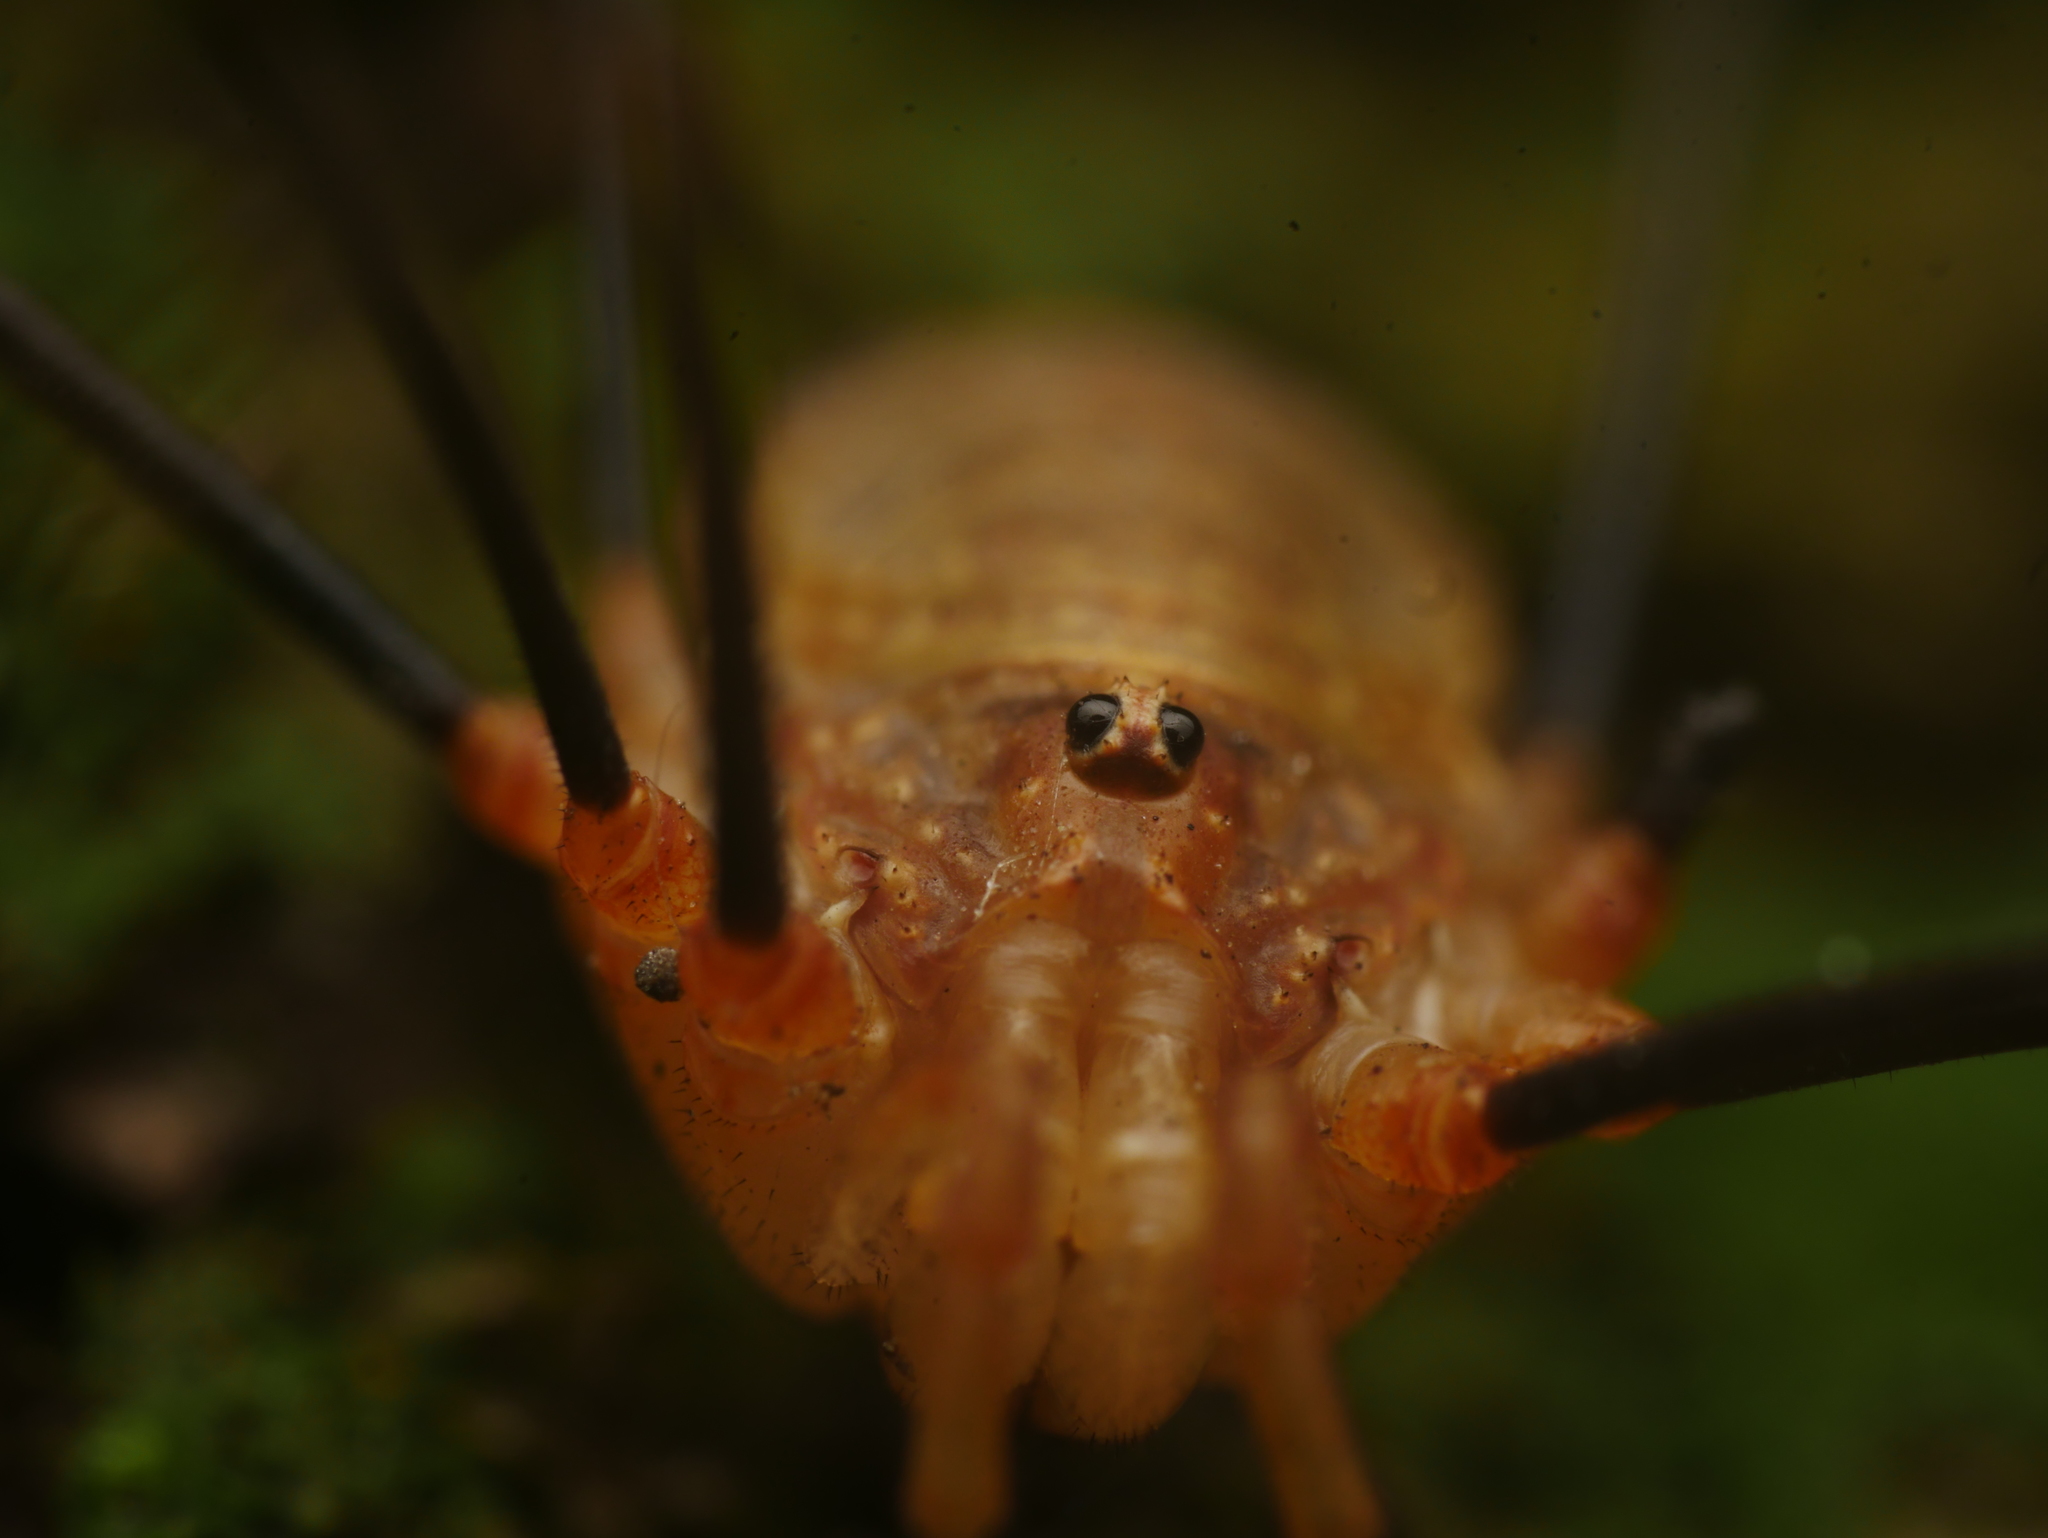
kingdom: Animalia
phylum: Arthropoda
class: Arachnida
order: Opiliones
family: Phalangiidae
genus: Opilio
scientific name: Opilio canestrinii
